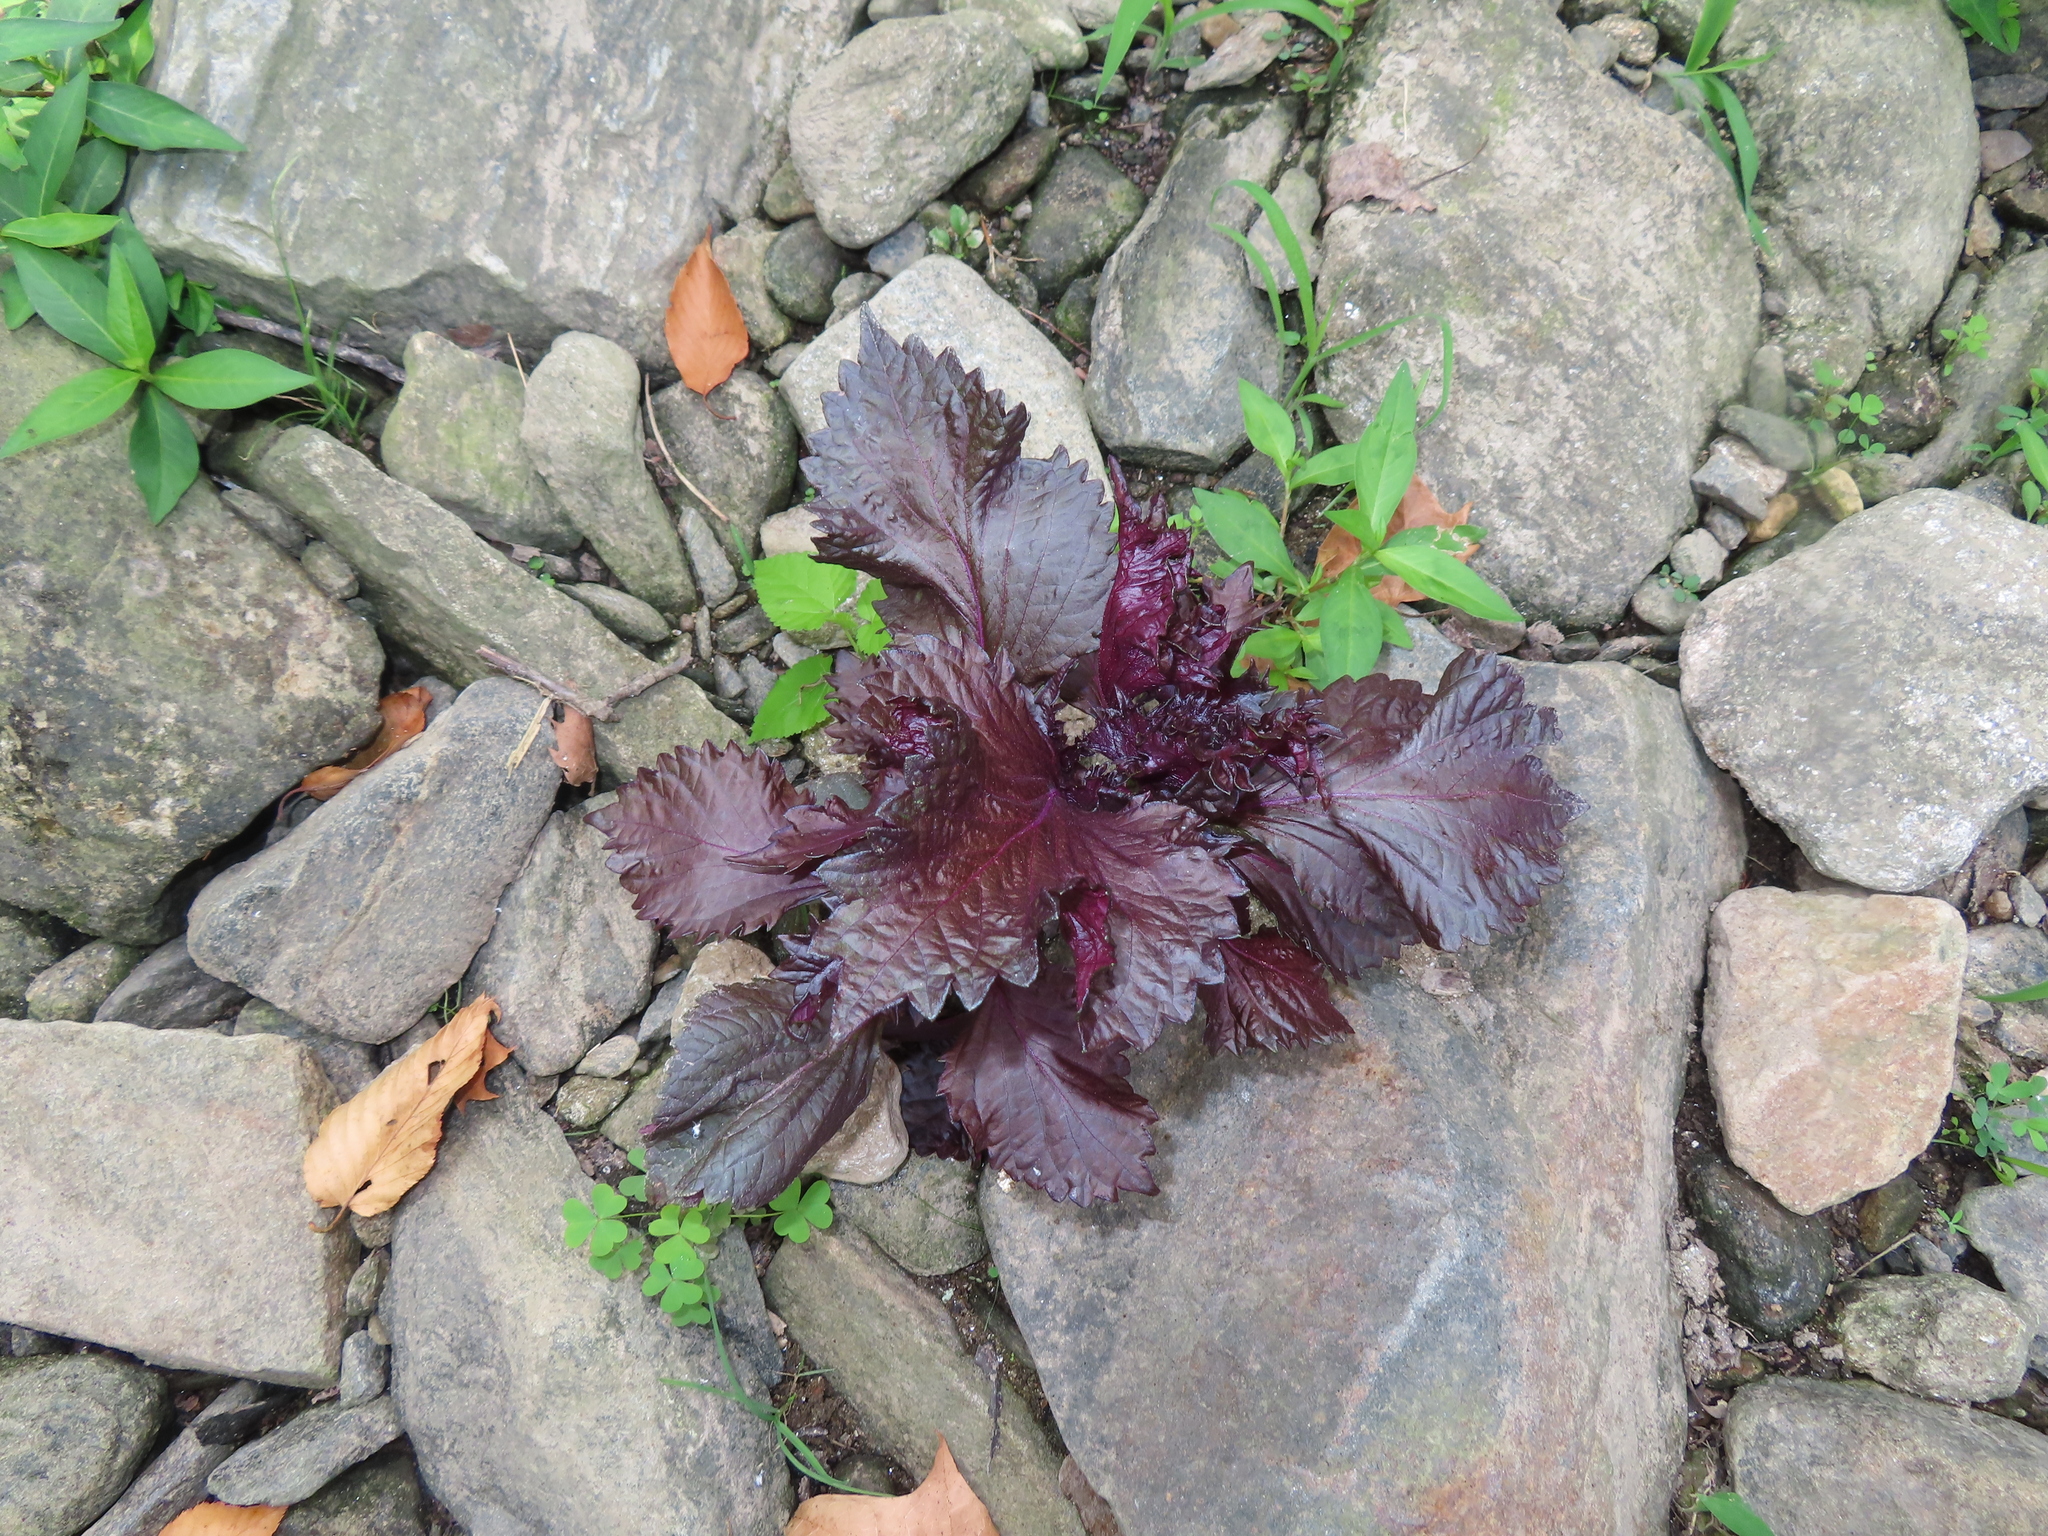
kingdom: Plantae
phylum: Tracheophyta
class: Magnoliopsida
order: Lamiales
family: Lamiaceae
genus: Perilla
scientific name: Perilla frutescens
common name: Perilla
